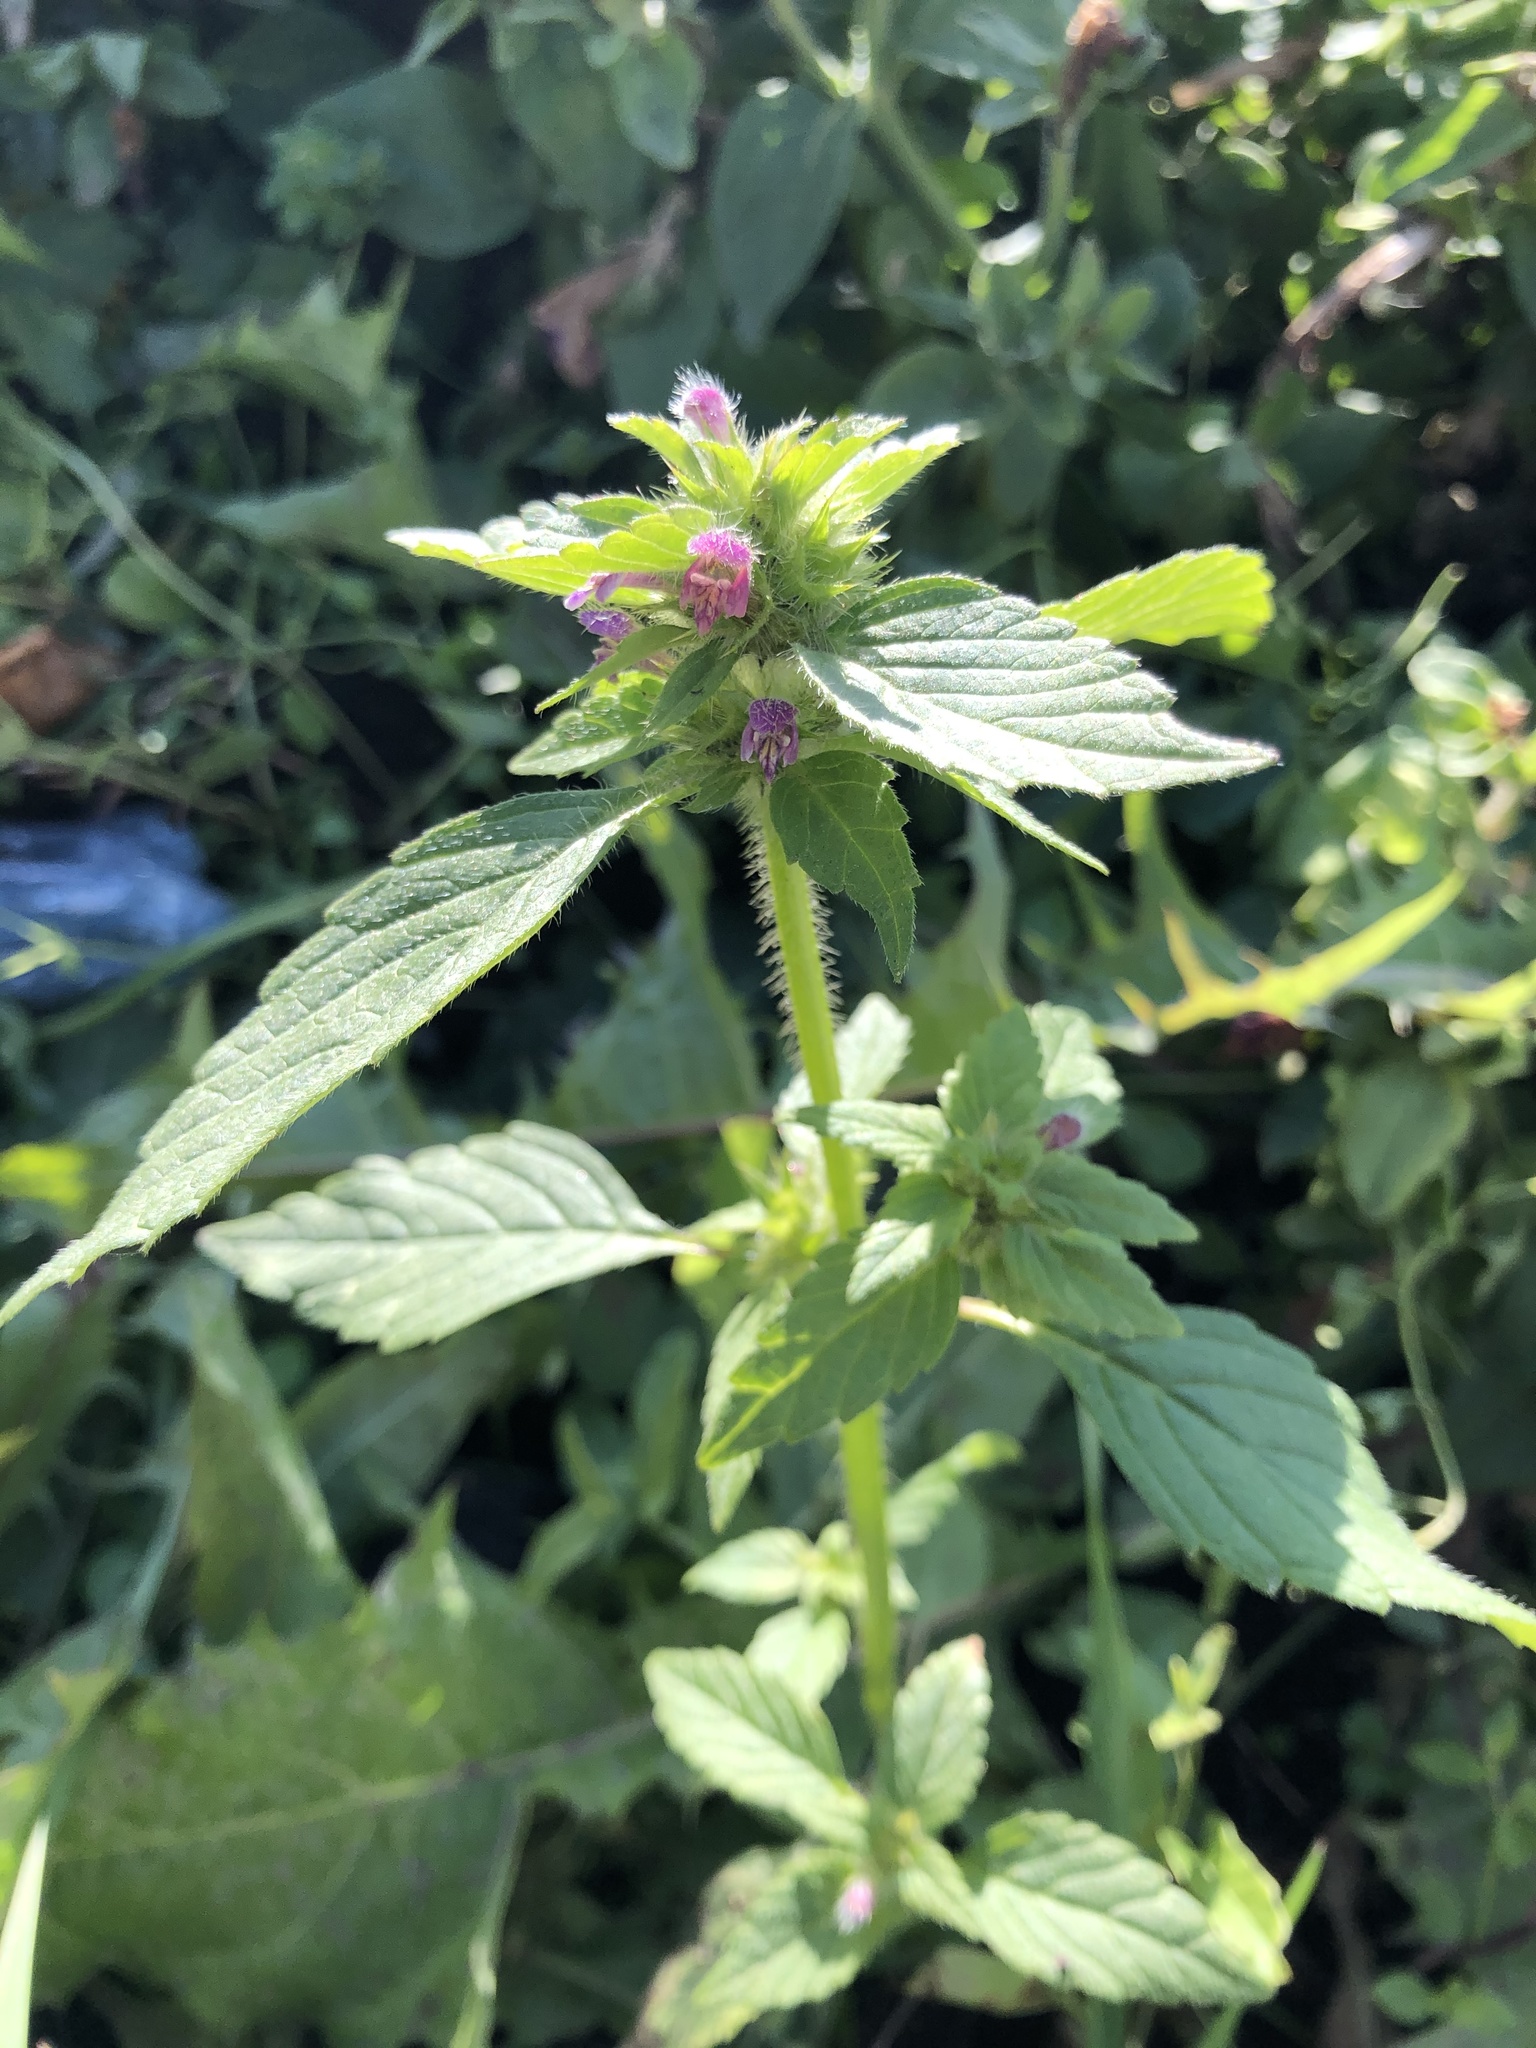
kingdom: Plantae
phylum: Tracheophyta
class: Magnoliopsida
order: Lamiales
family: Lamiaceae
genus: Galeopsis
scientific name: Galeopsis bifida
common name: Bifid hemp-nettle
